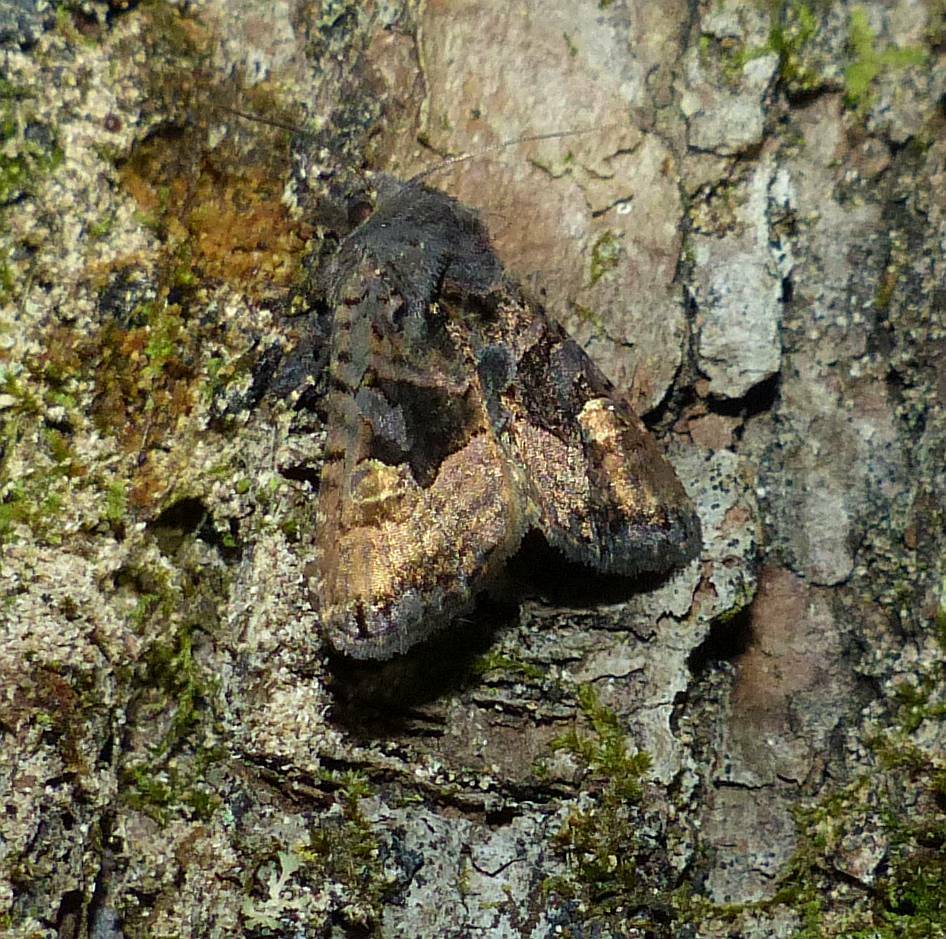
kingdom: Animalia
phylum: Arthropoda
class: Insecta
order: Lepidoptera
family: Noctuidae
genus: Euplexia
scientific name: Euplexia benesimilis
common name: American angle shades
